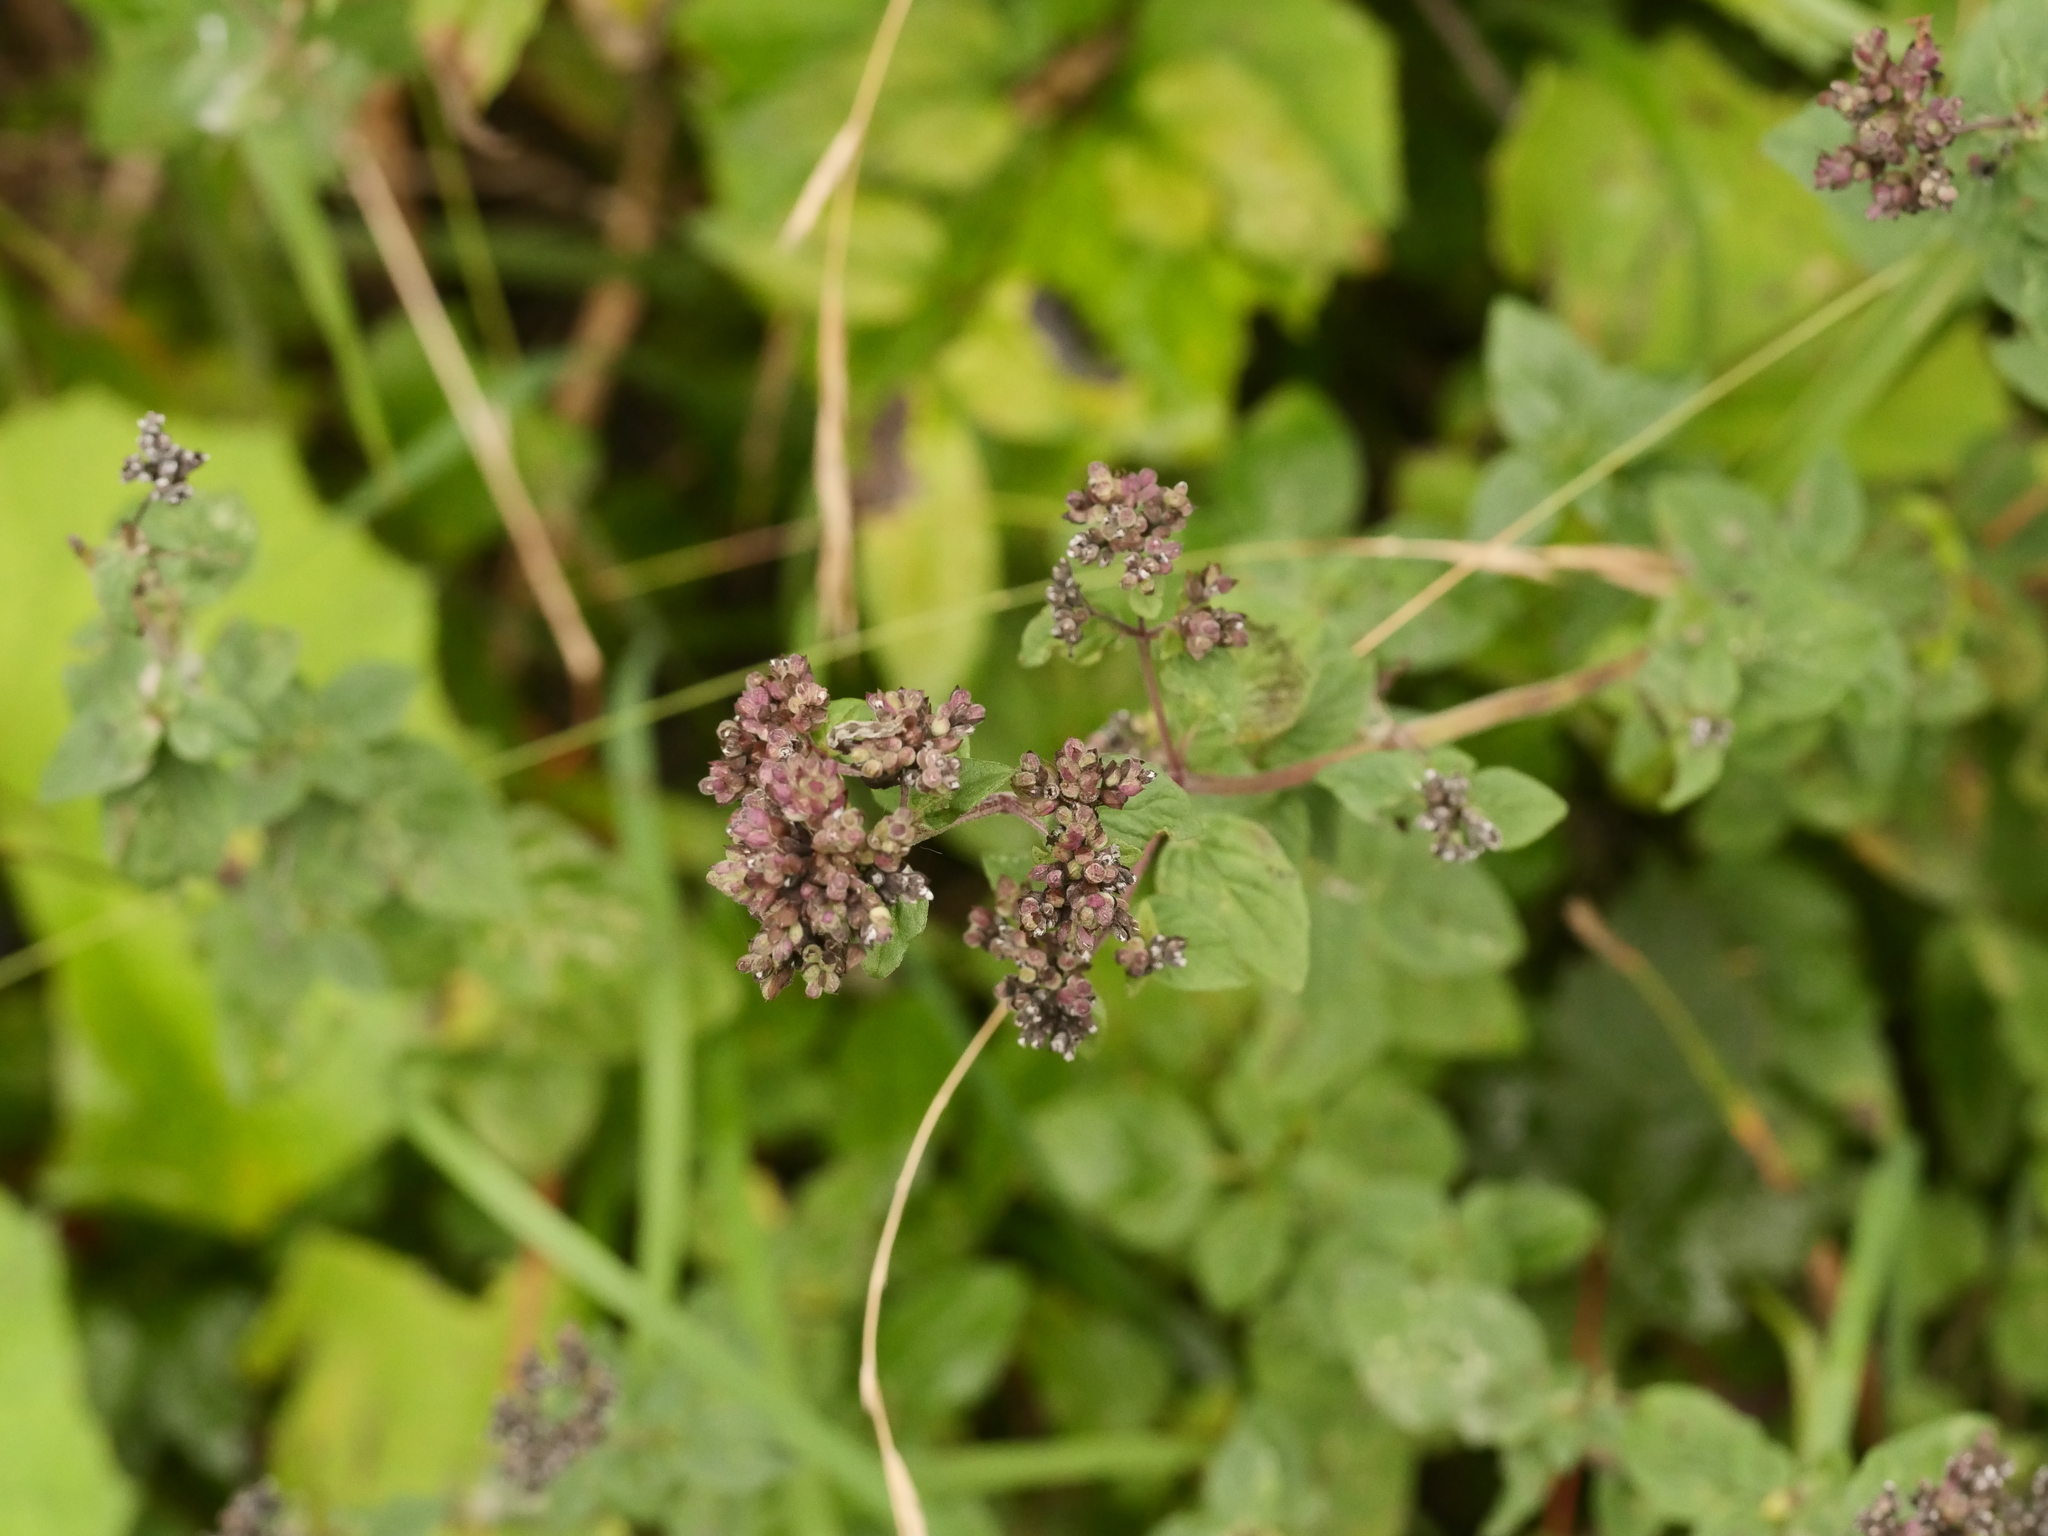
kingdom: Plantae
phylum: Tracheophyta
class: Magnoliopsida
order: Lamiales
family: Lamiaceae
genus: Origanum
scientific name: Origanum vulgare
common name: Wild marjoram
